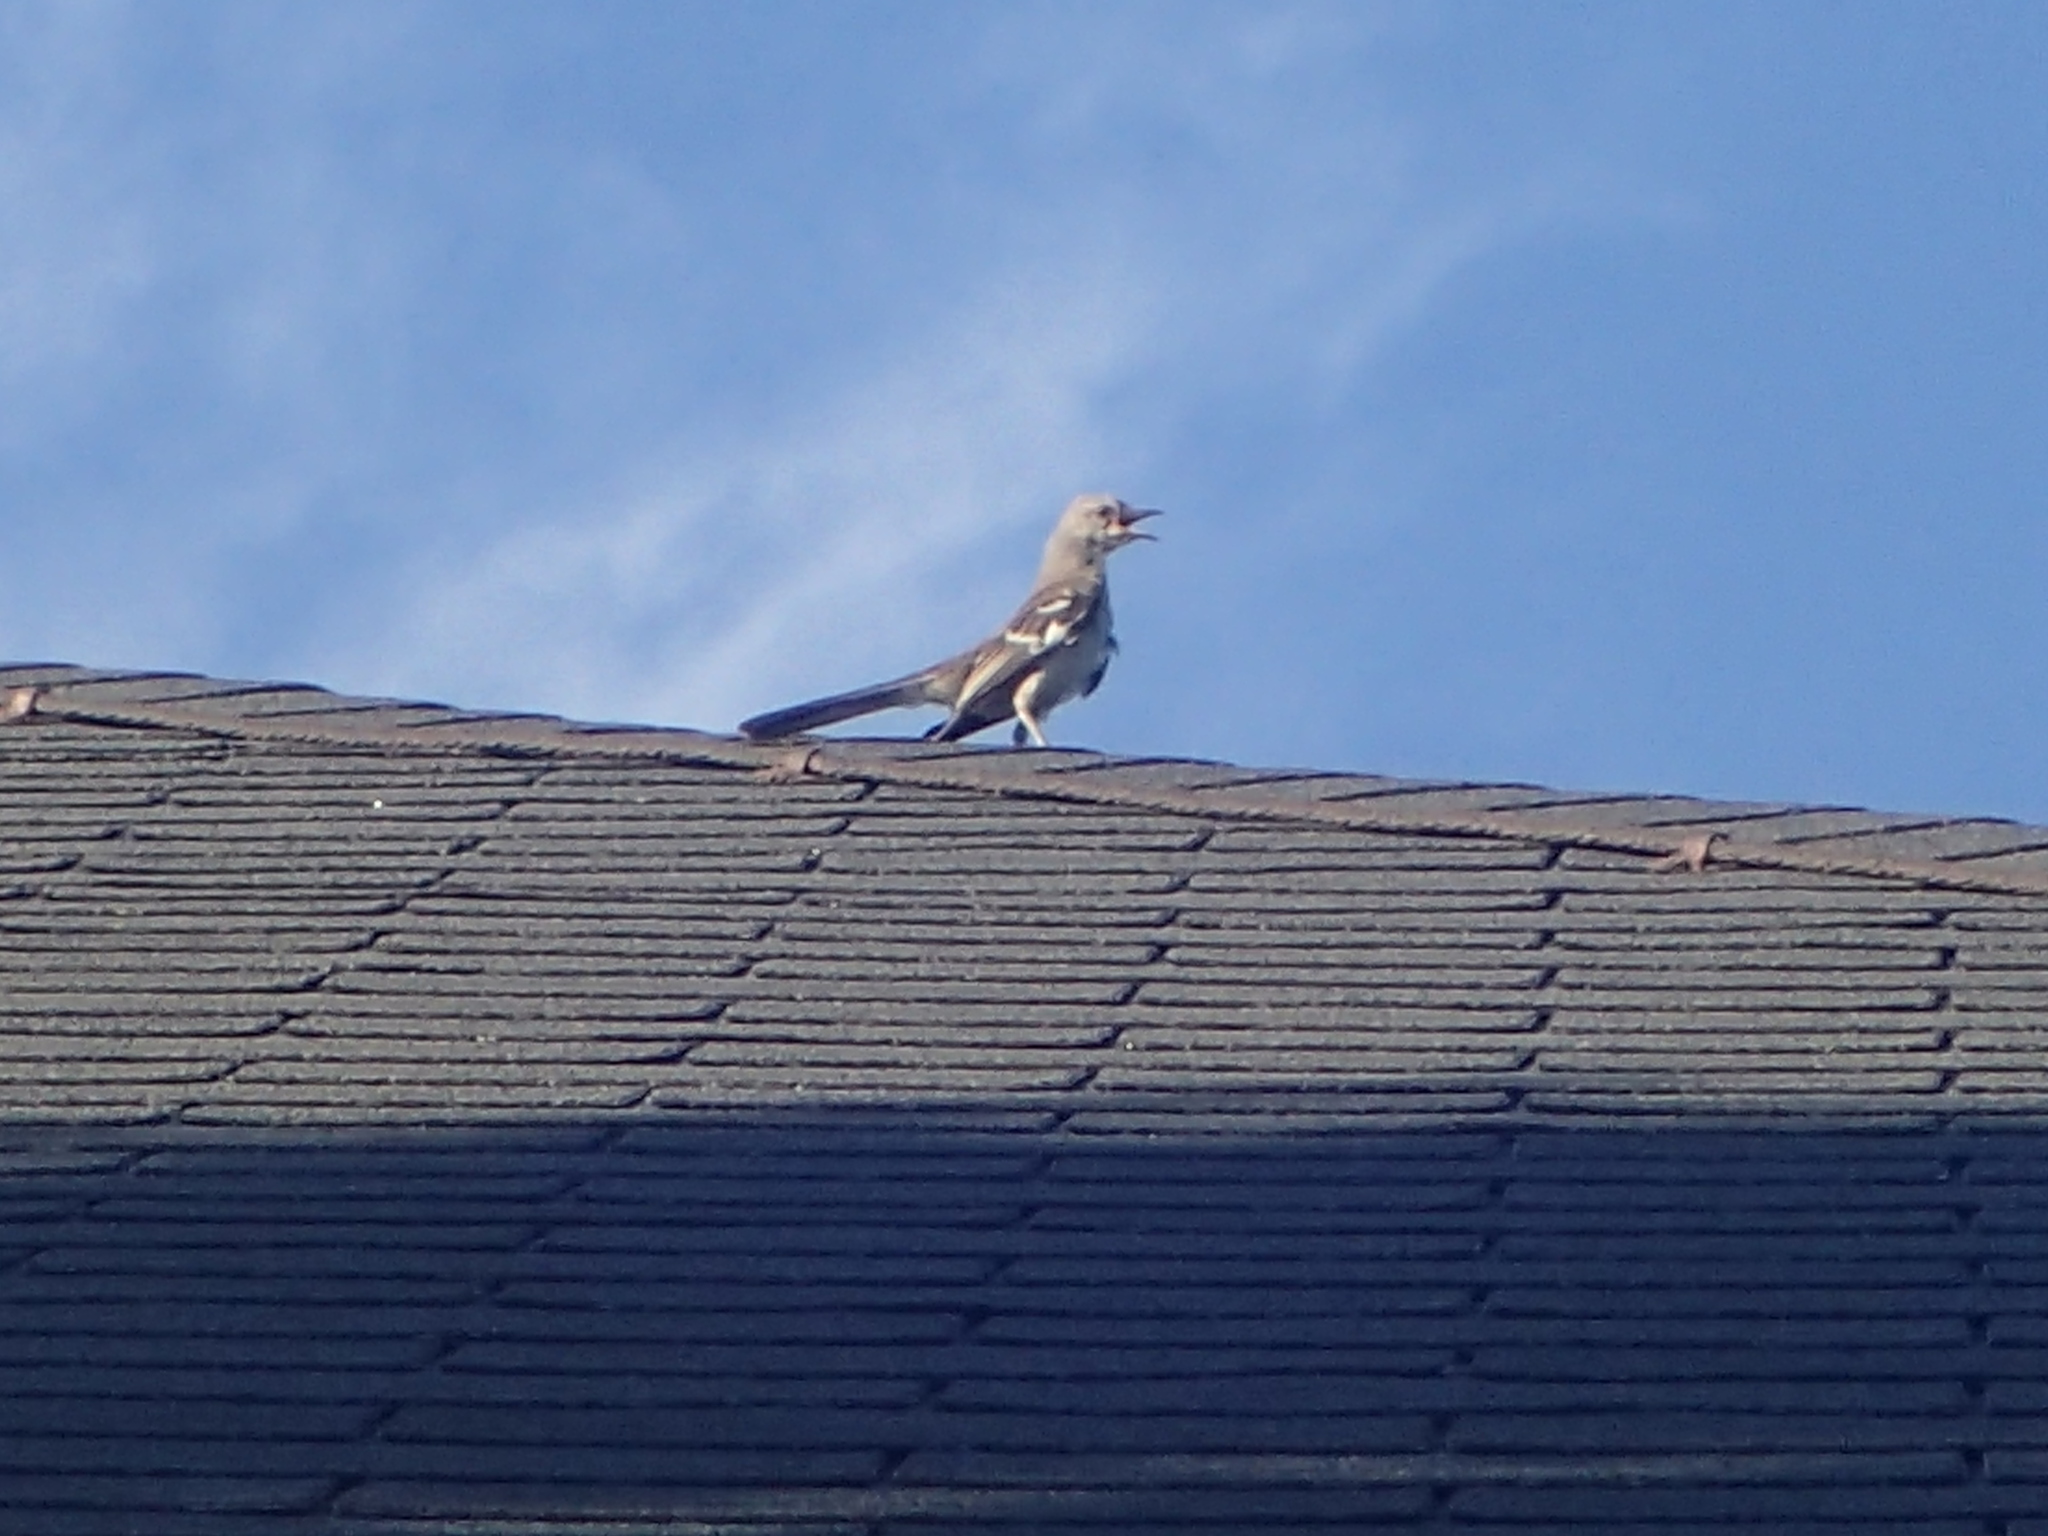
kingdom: Animalia
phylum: Chordata
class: Aves
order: Passeriformes
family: Mimidae
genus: Mimus
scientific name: Mimus polyglottos
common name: Northern mockingbird
